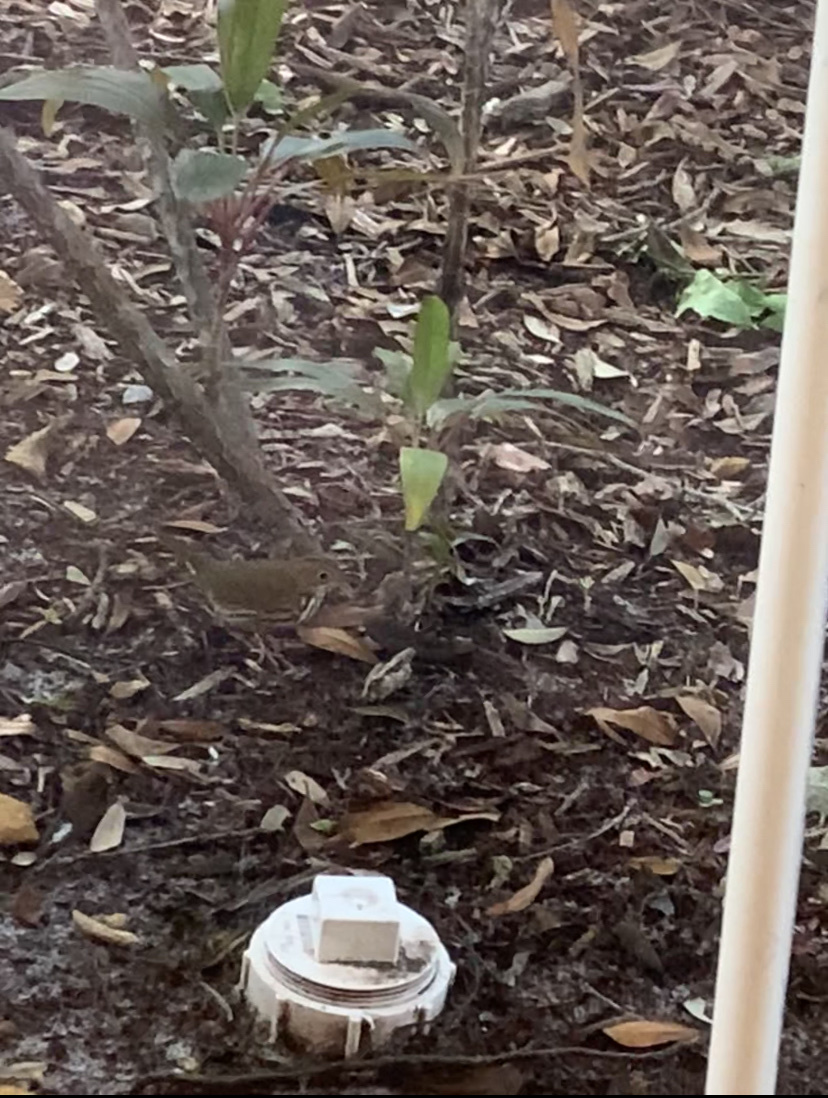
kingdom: Animalia
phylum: Chordata
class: Aves
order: Passeriformes
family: Parulidae
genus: Seiurus
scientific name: Seiurus aurocapilla
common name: Ovenbird
